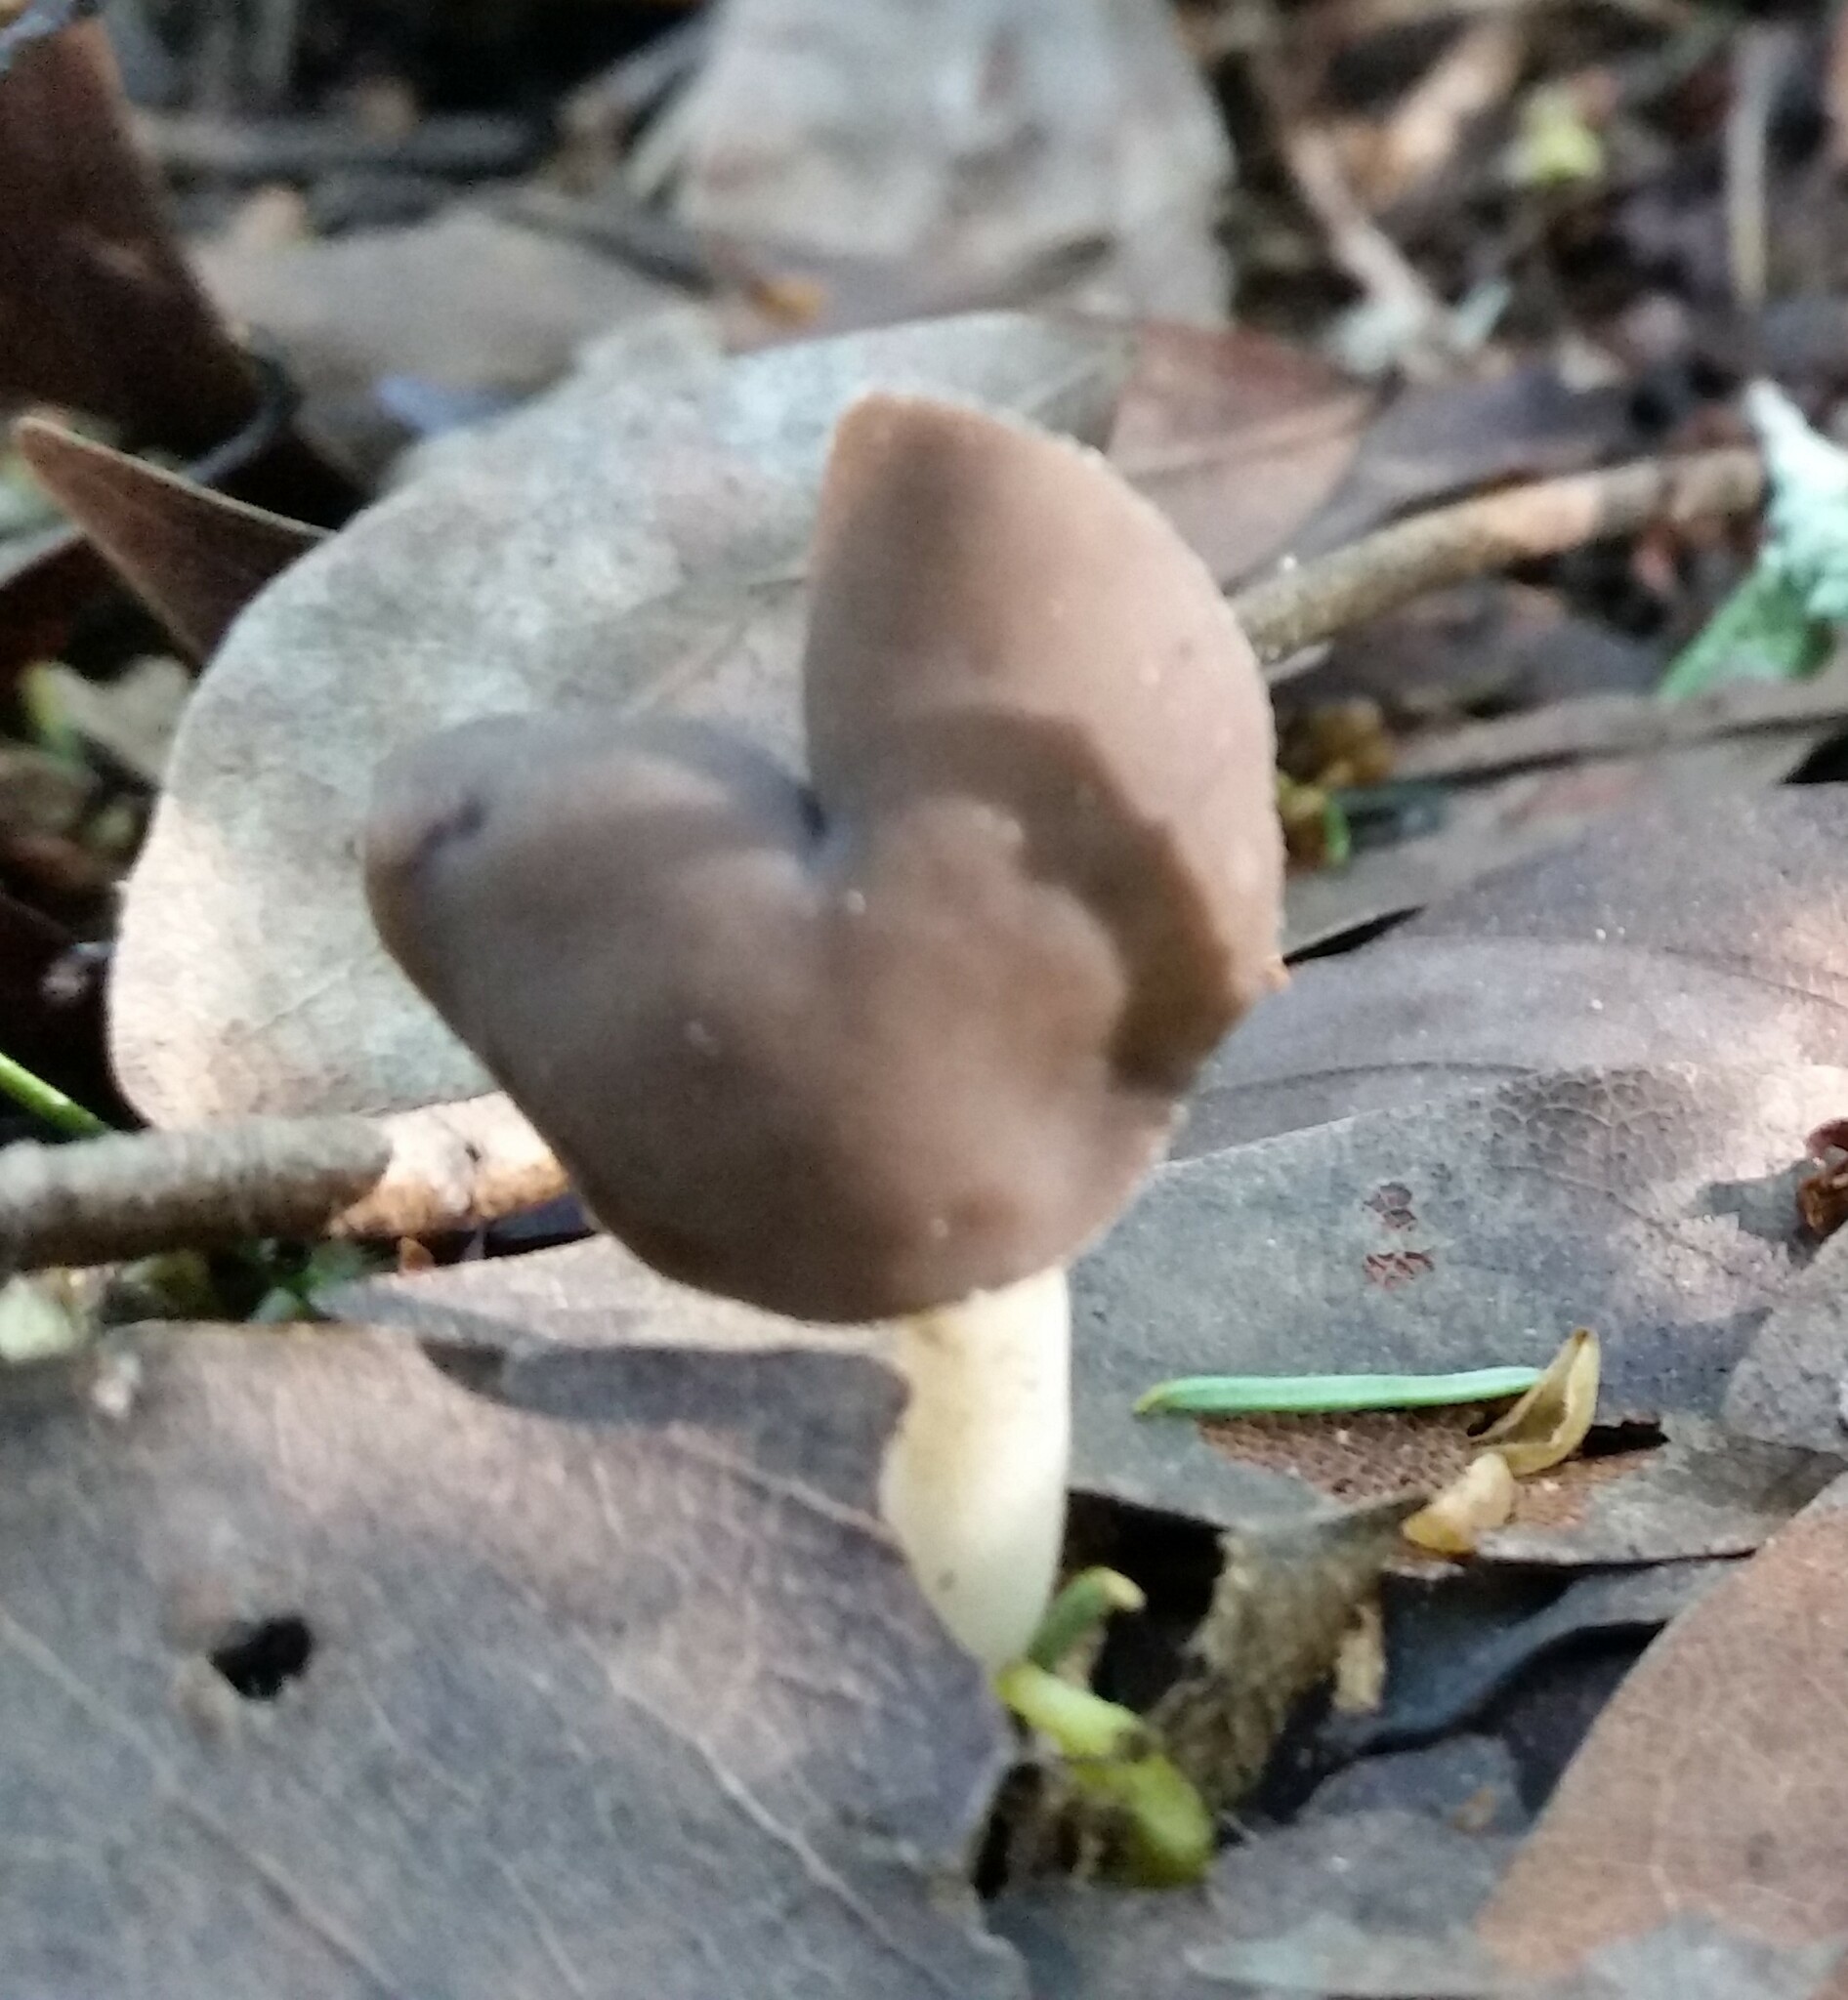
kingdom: Fungi
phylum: Ascomycota
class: Pezizomycetes
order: Pezizales
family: Helvellaceae
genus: Helvella
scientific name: Helvella compressa
